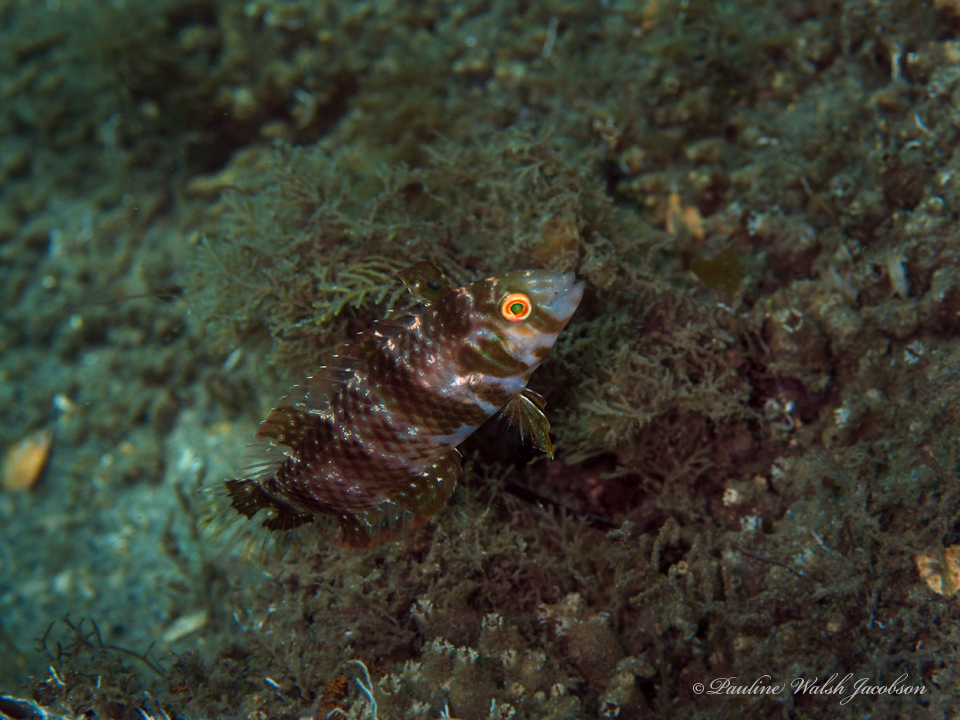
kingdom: Animalia
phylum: Chordata
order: Perciformes
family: Labridae
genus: Xyrichtys
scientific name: Xyrichtys splendens
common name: Green razorfish
